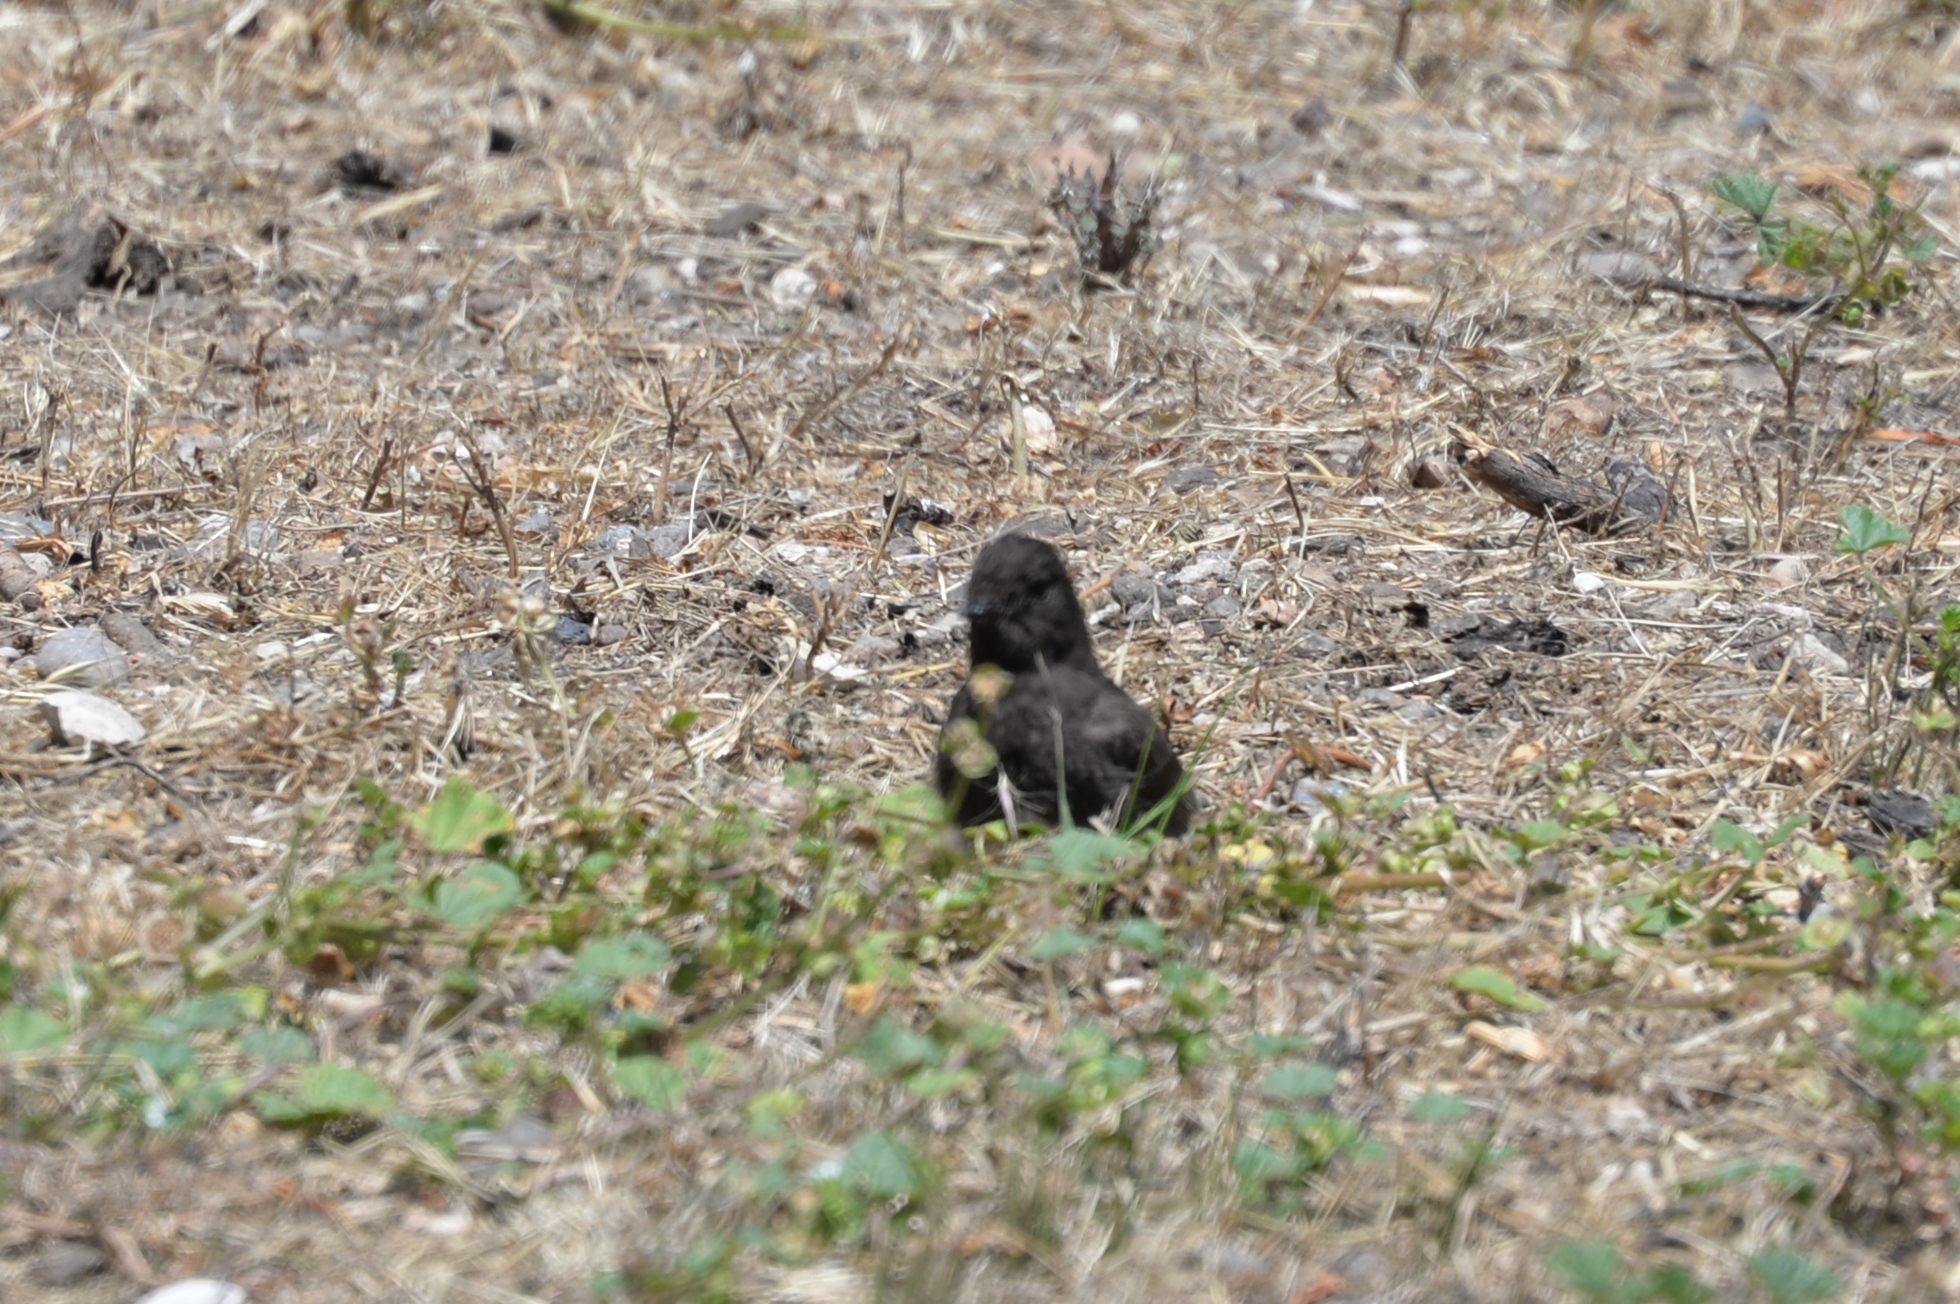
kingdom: Animalia
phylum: Chordata
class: Aves
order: Passeriformes
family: Tyrannidae
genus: Sayornis
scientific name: Sayornis nigricans
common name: Black phoebe
